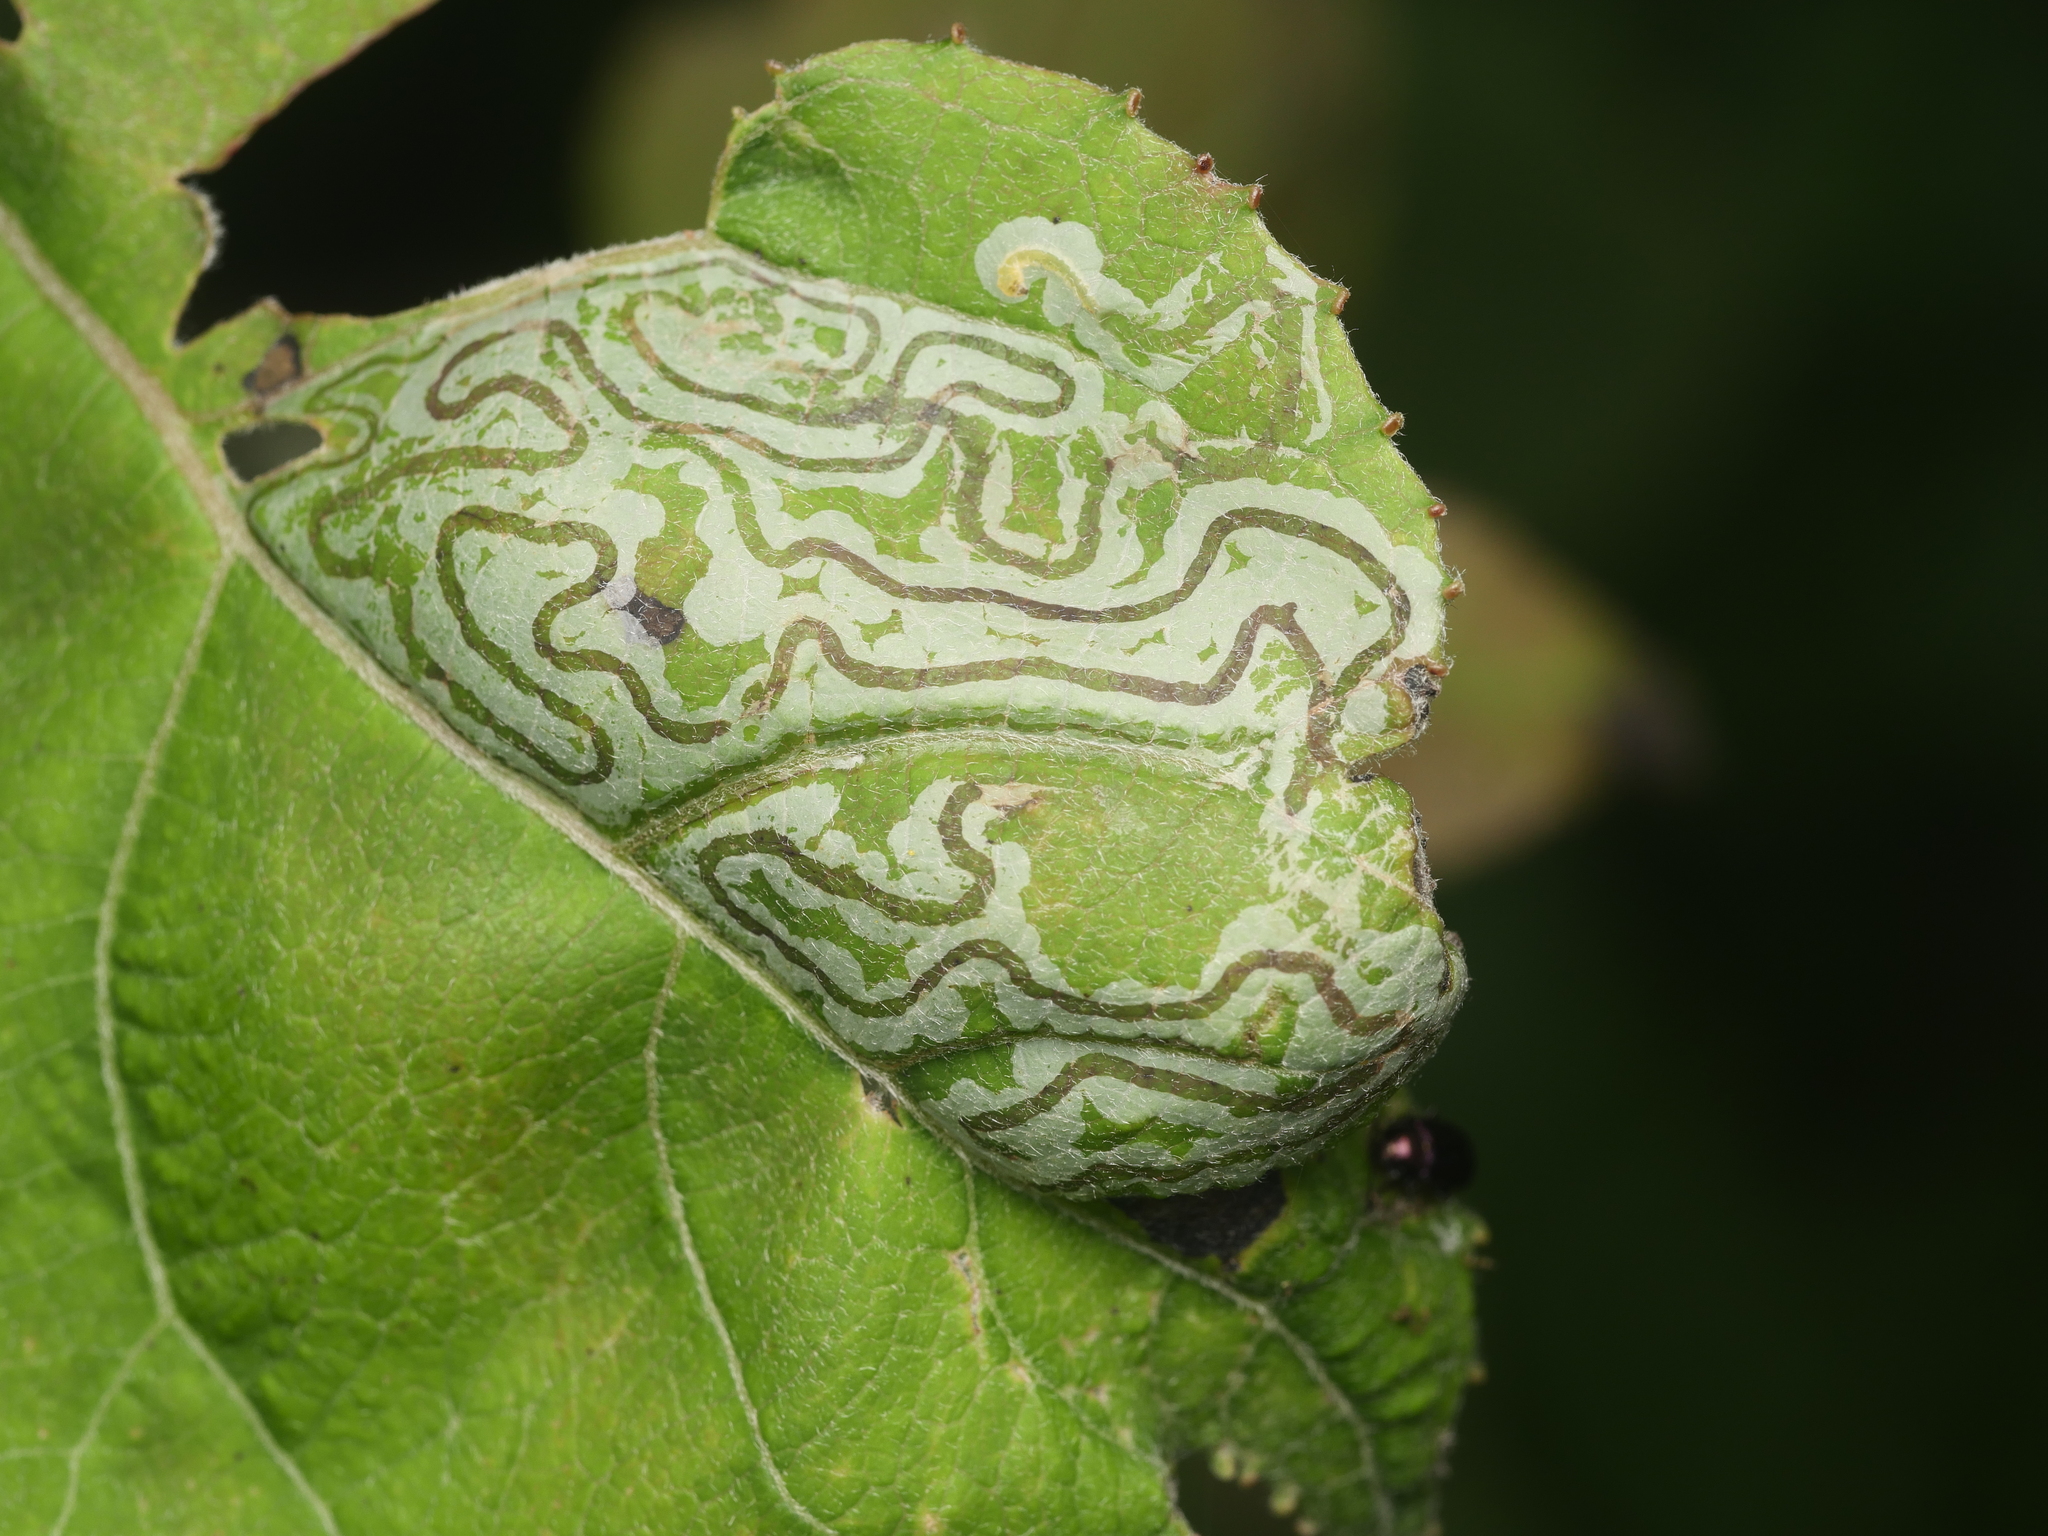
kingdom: Animalia
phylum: Arthropoda
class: Insecta
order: Lepidoptera
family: Gracillariidae
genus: Phyllocnistis
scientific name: Phyllocnistis populiella
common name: Aspen serpentine leafminer moth
